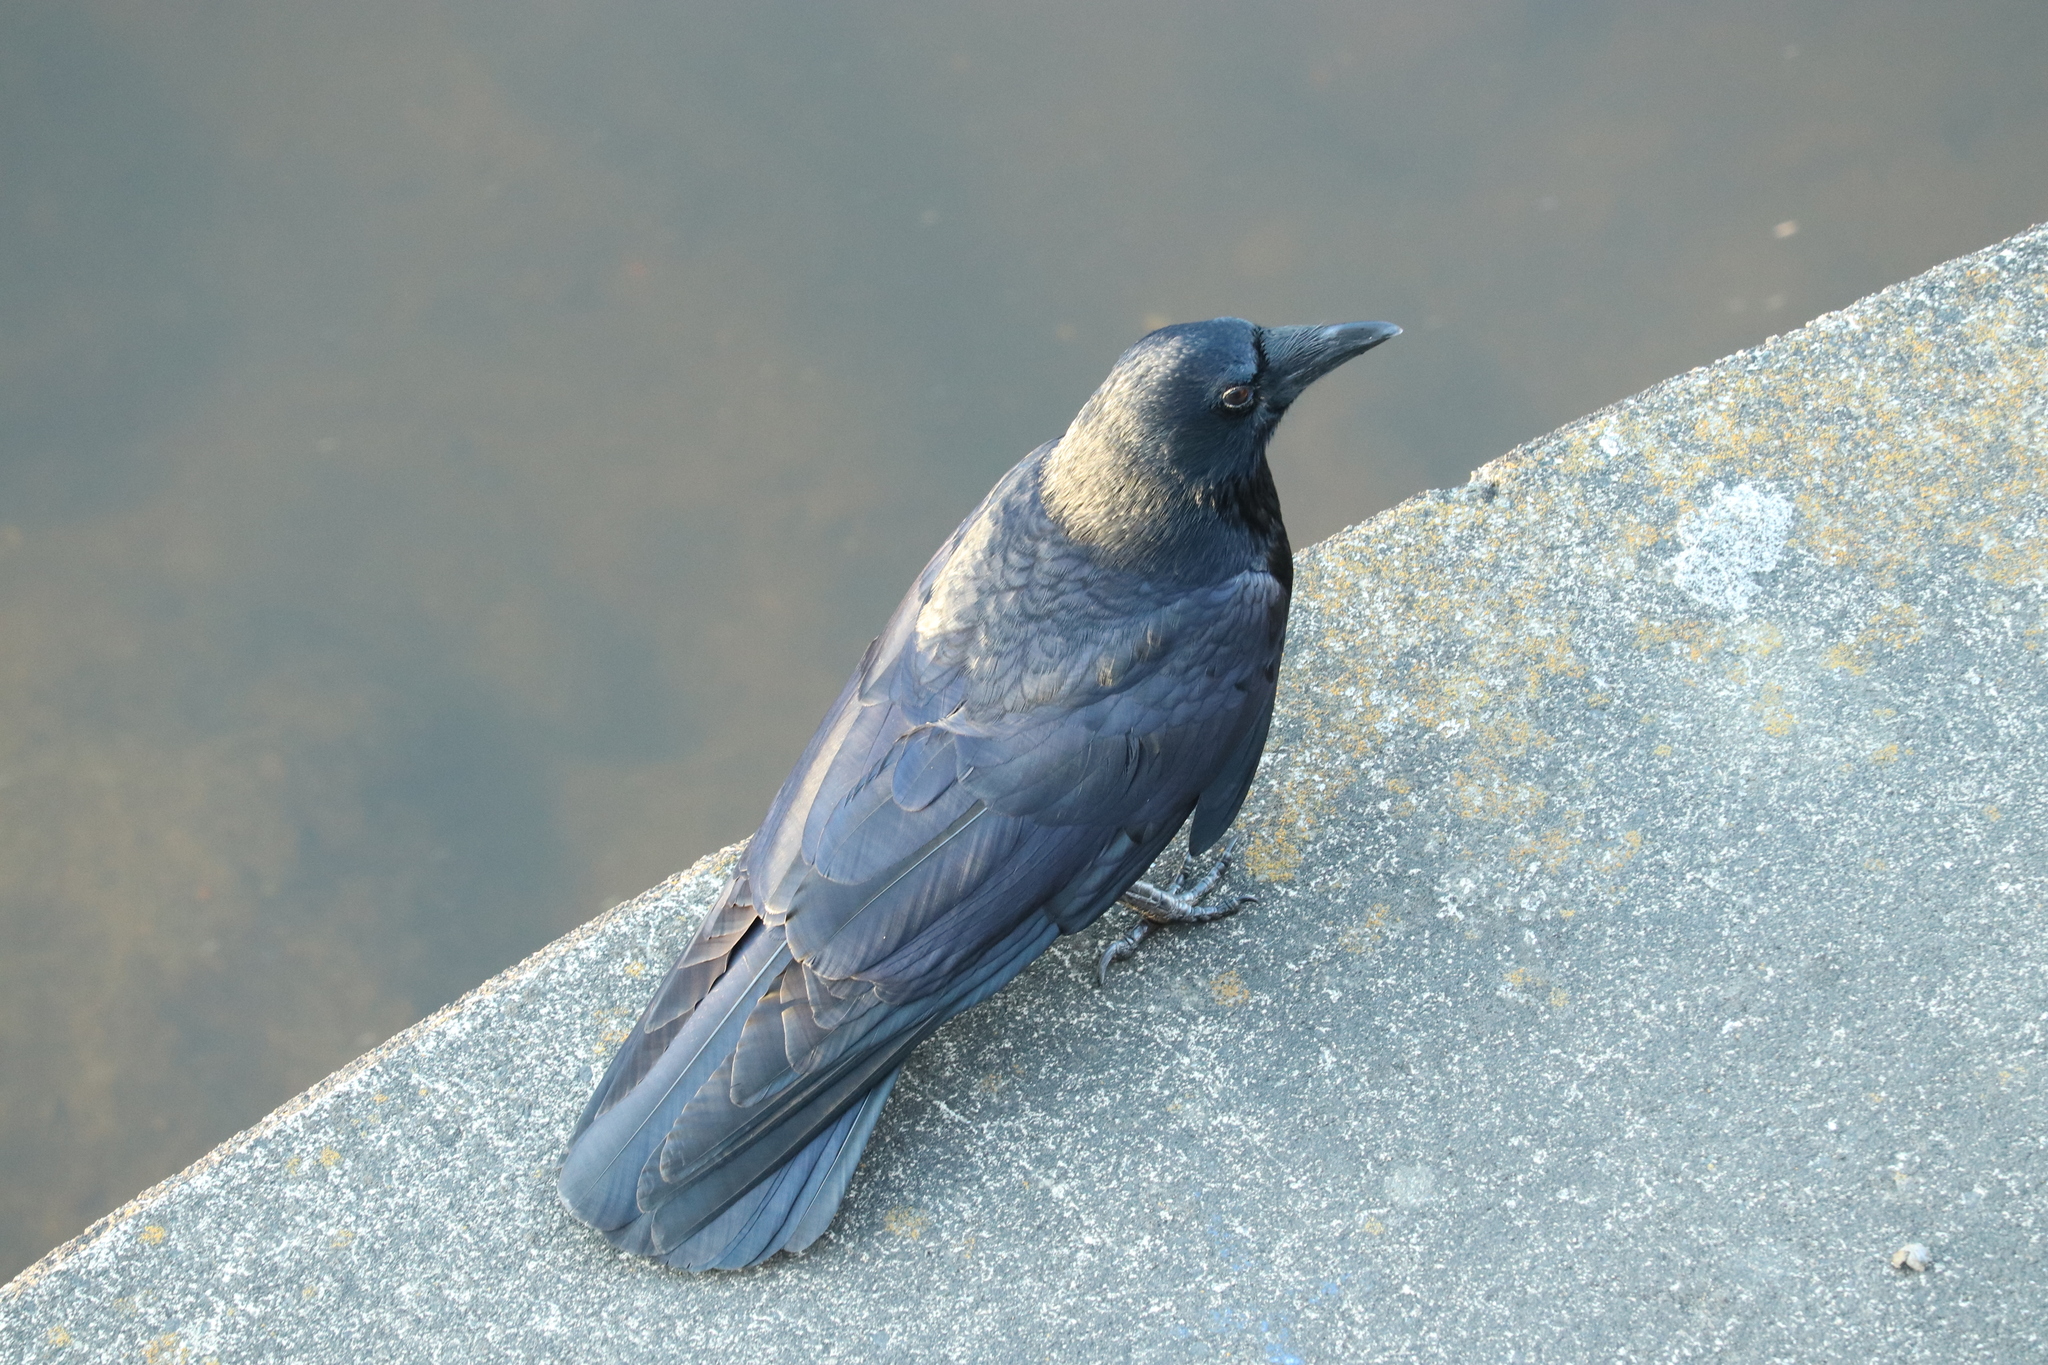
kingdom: Animalia
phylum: Chordata
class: Aves
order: Passeriformes
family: Corvidae
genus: Corvus
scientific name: Corvus corone
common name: Carrion crow
